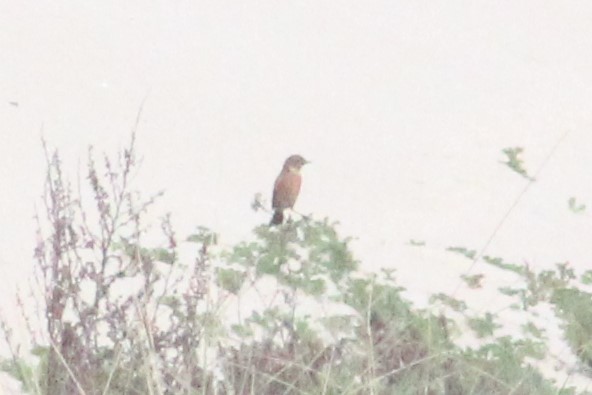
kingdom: Animalia
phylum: Chordata
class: Aves
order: Passeriformes
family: Muscicapidae
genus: Saxicola
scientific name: Saxicola rubicola
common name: European stonechat
